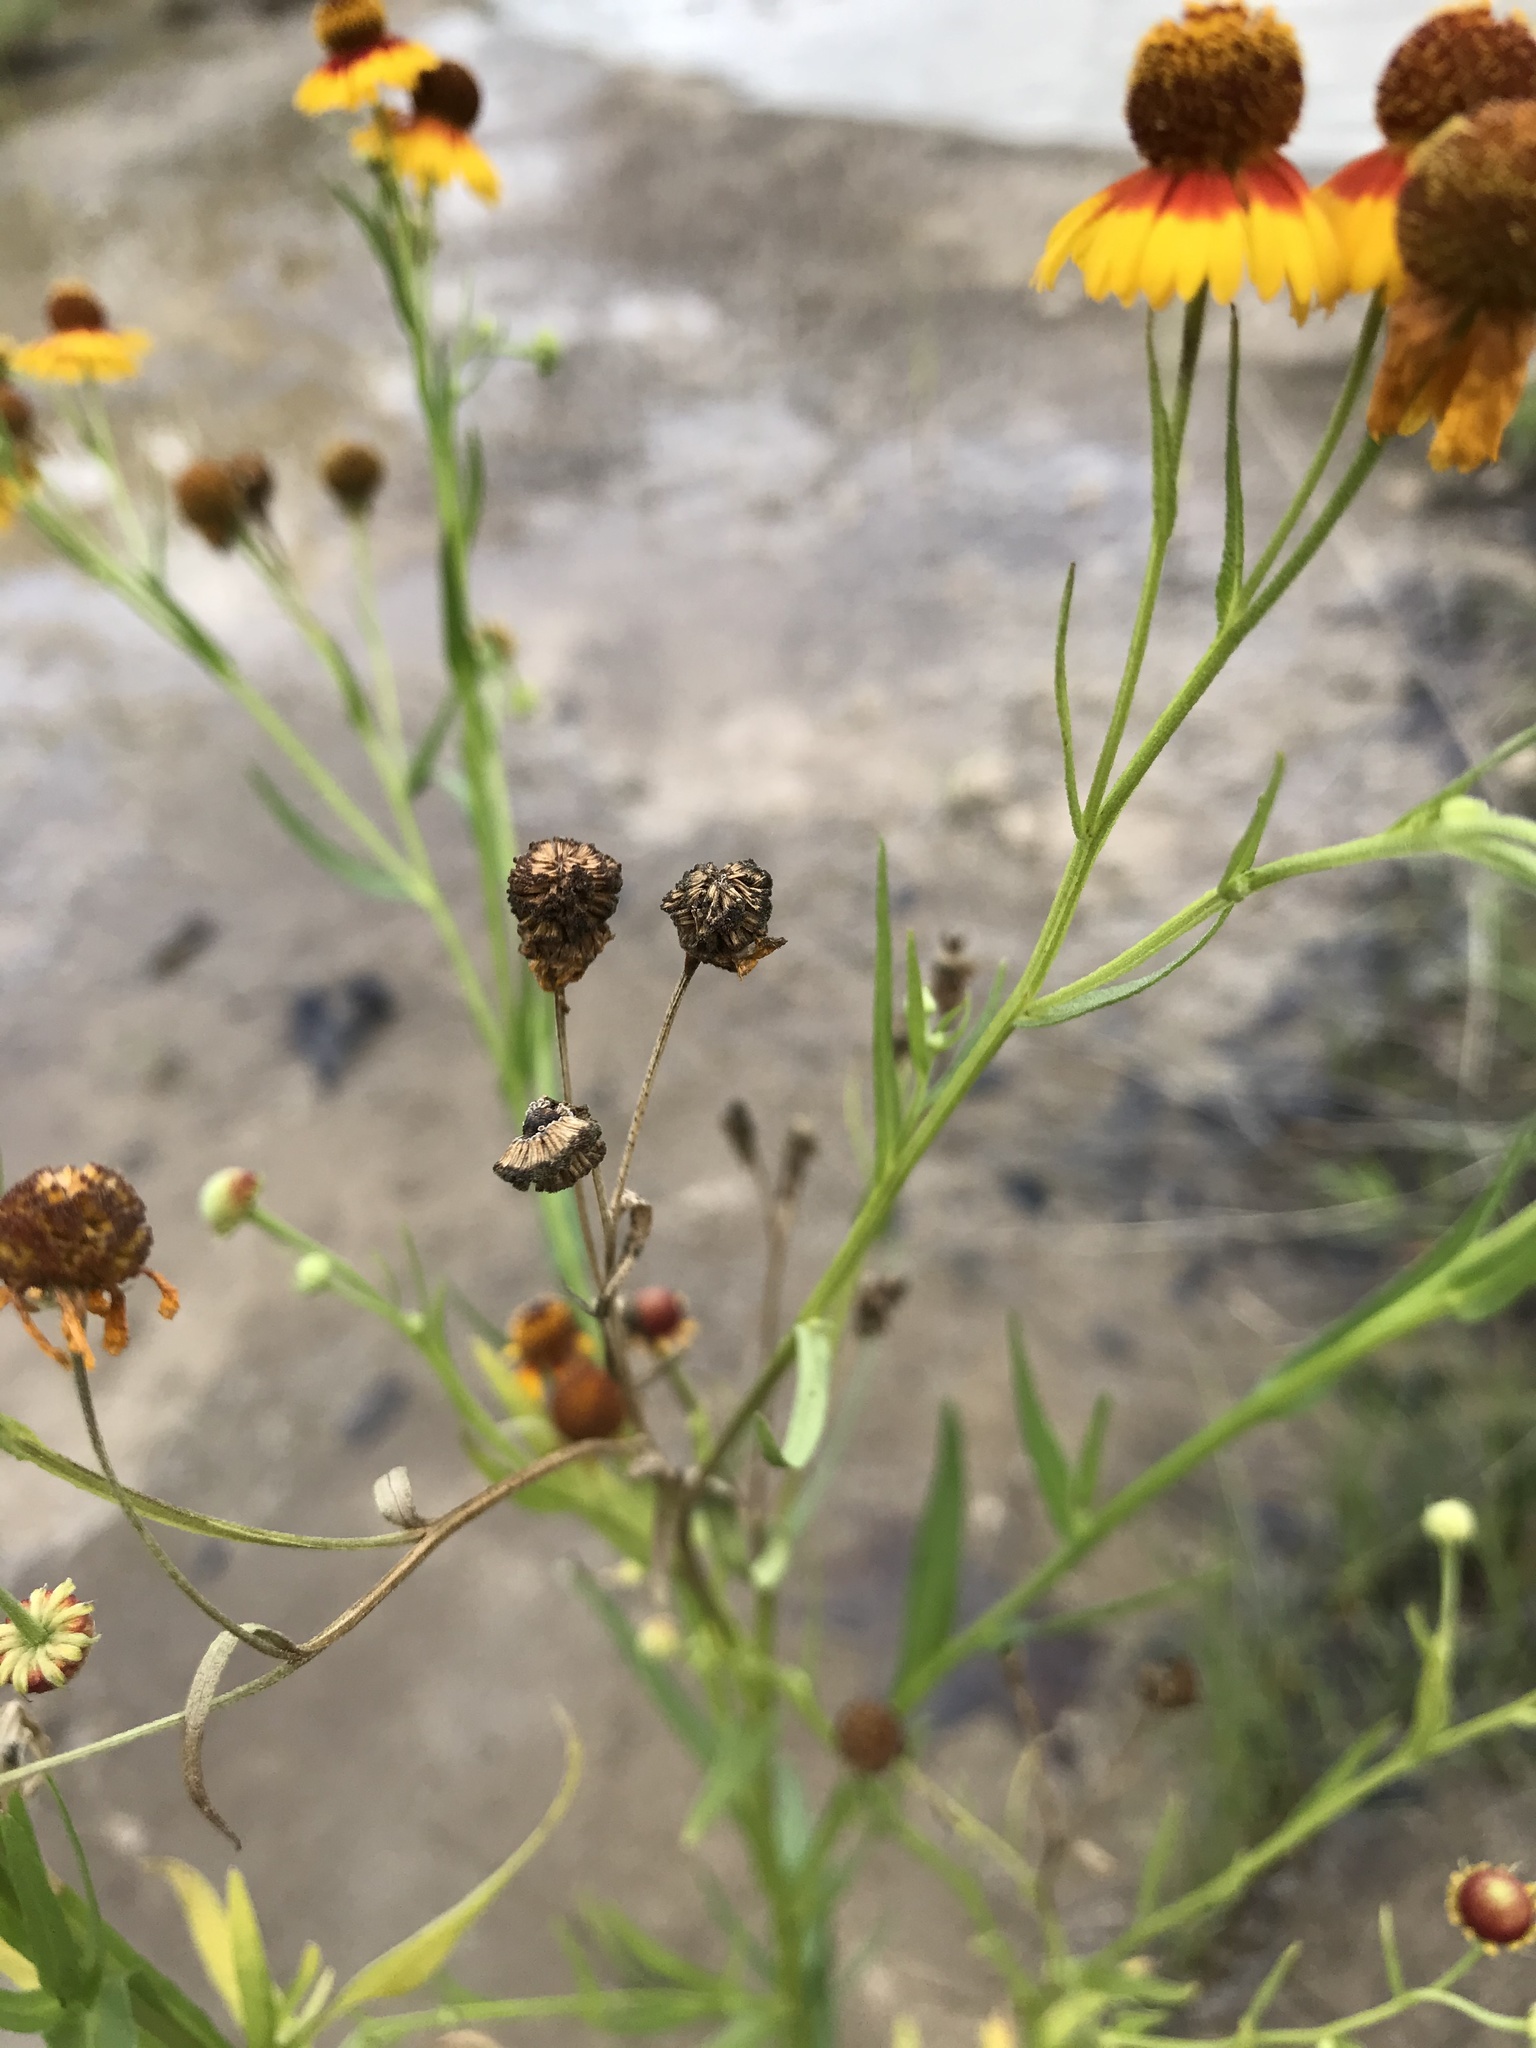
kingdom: Plantae
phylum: Tracheophyta
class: Magnoliopsida
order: Asterales
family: Asteraceae
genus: Helenium
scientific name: Helenium elegans
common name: Pretty sneezeweed
